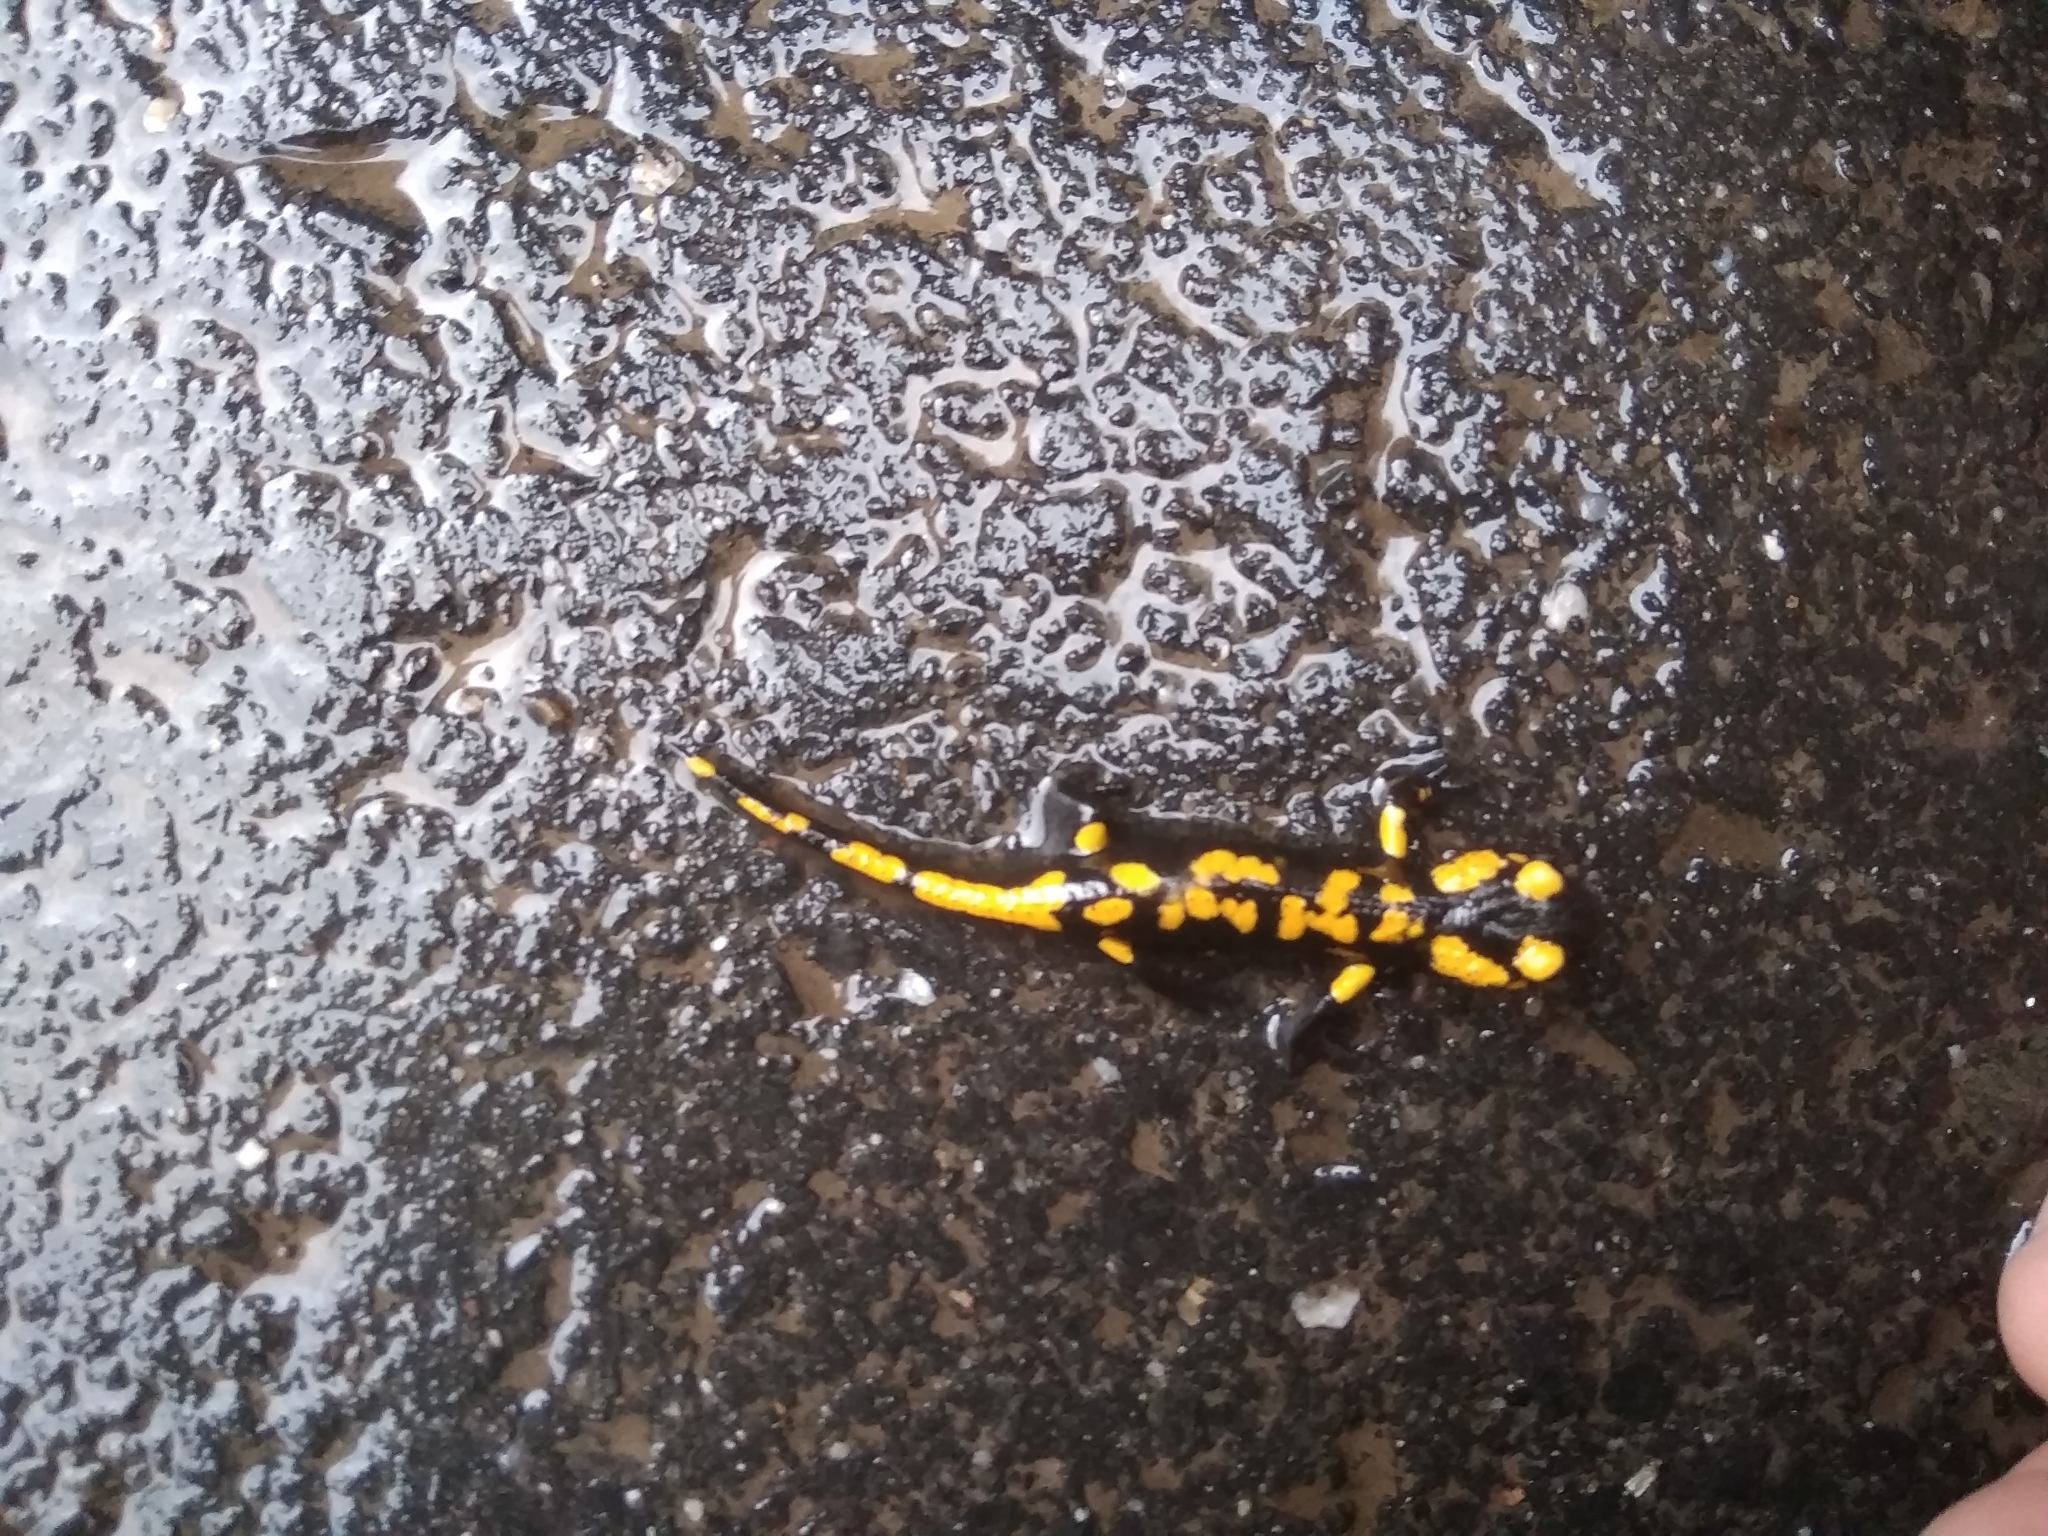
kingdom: Animalia
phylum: Chordata
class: Amphibia
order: Caudata
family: Salamandridae
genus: Salamandra
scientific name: Salamandra salamandra
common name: Fire salamander
